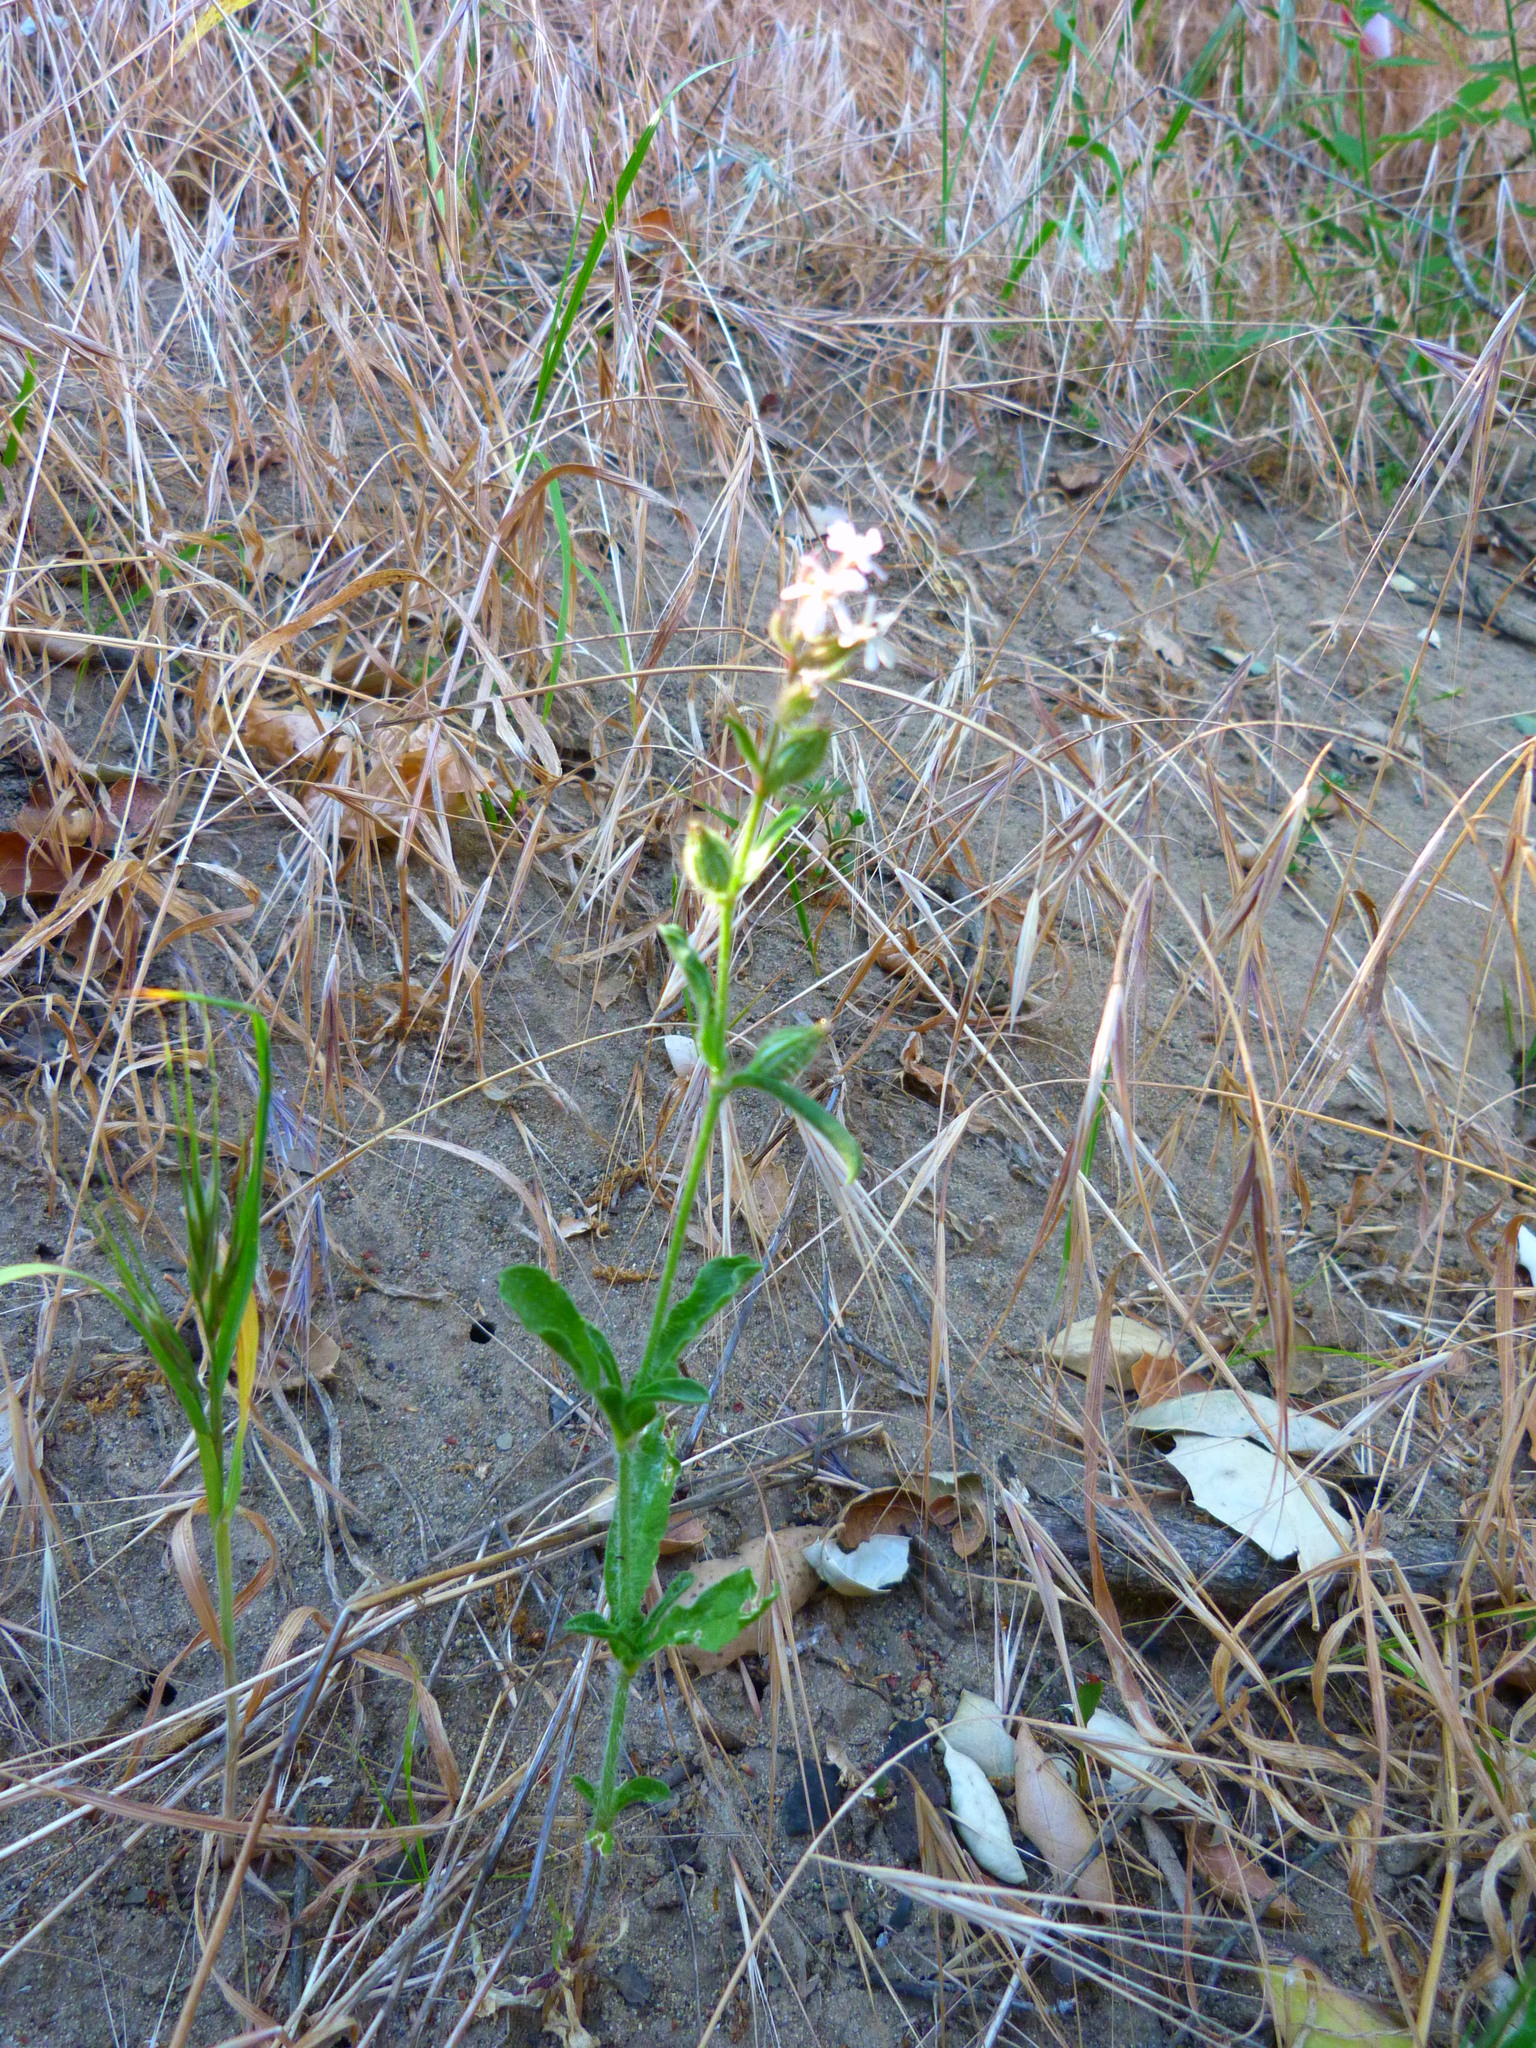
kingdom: Plantae
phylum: Tracheophyta
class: Magnoliopsida
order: Caryophyllales
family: Caryophyllaceae
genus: Silene
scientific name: Silene gallica
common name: Small-flowered catchfly
